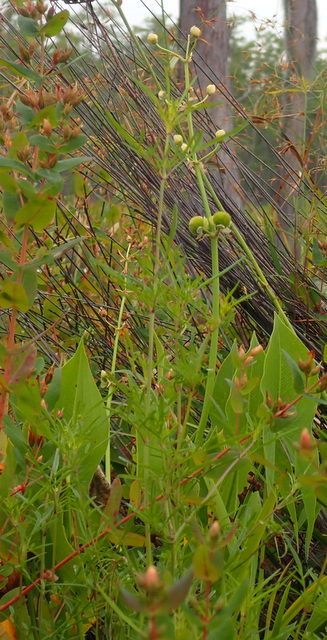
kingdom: Plantae
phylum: Tracheophyta
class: Liliopsida
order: Alismatales
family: Alismataceae
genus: Sagittaria
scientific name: Sagittaria engelmanniana
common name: Acid-water arrowhead
